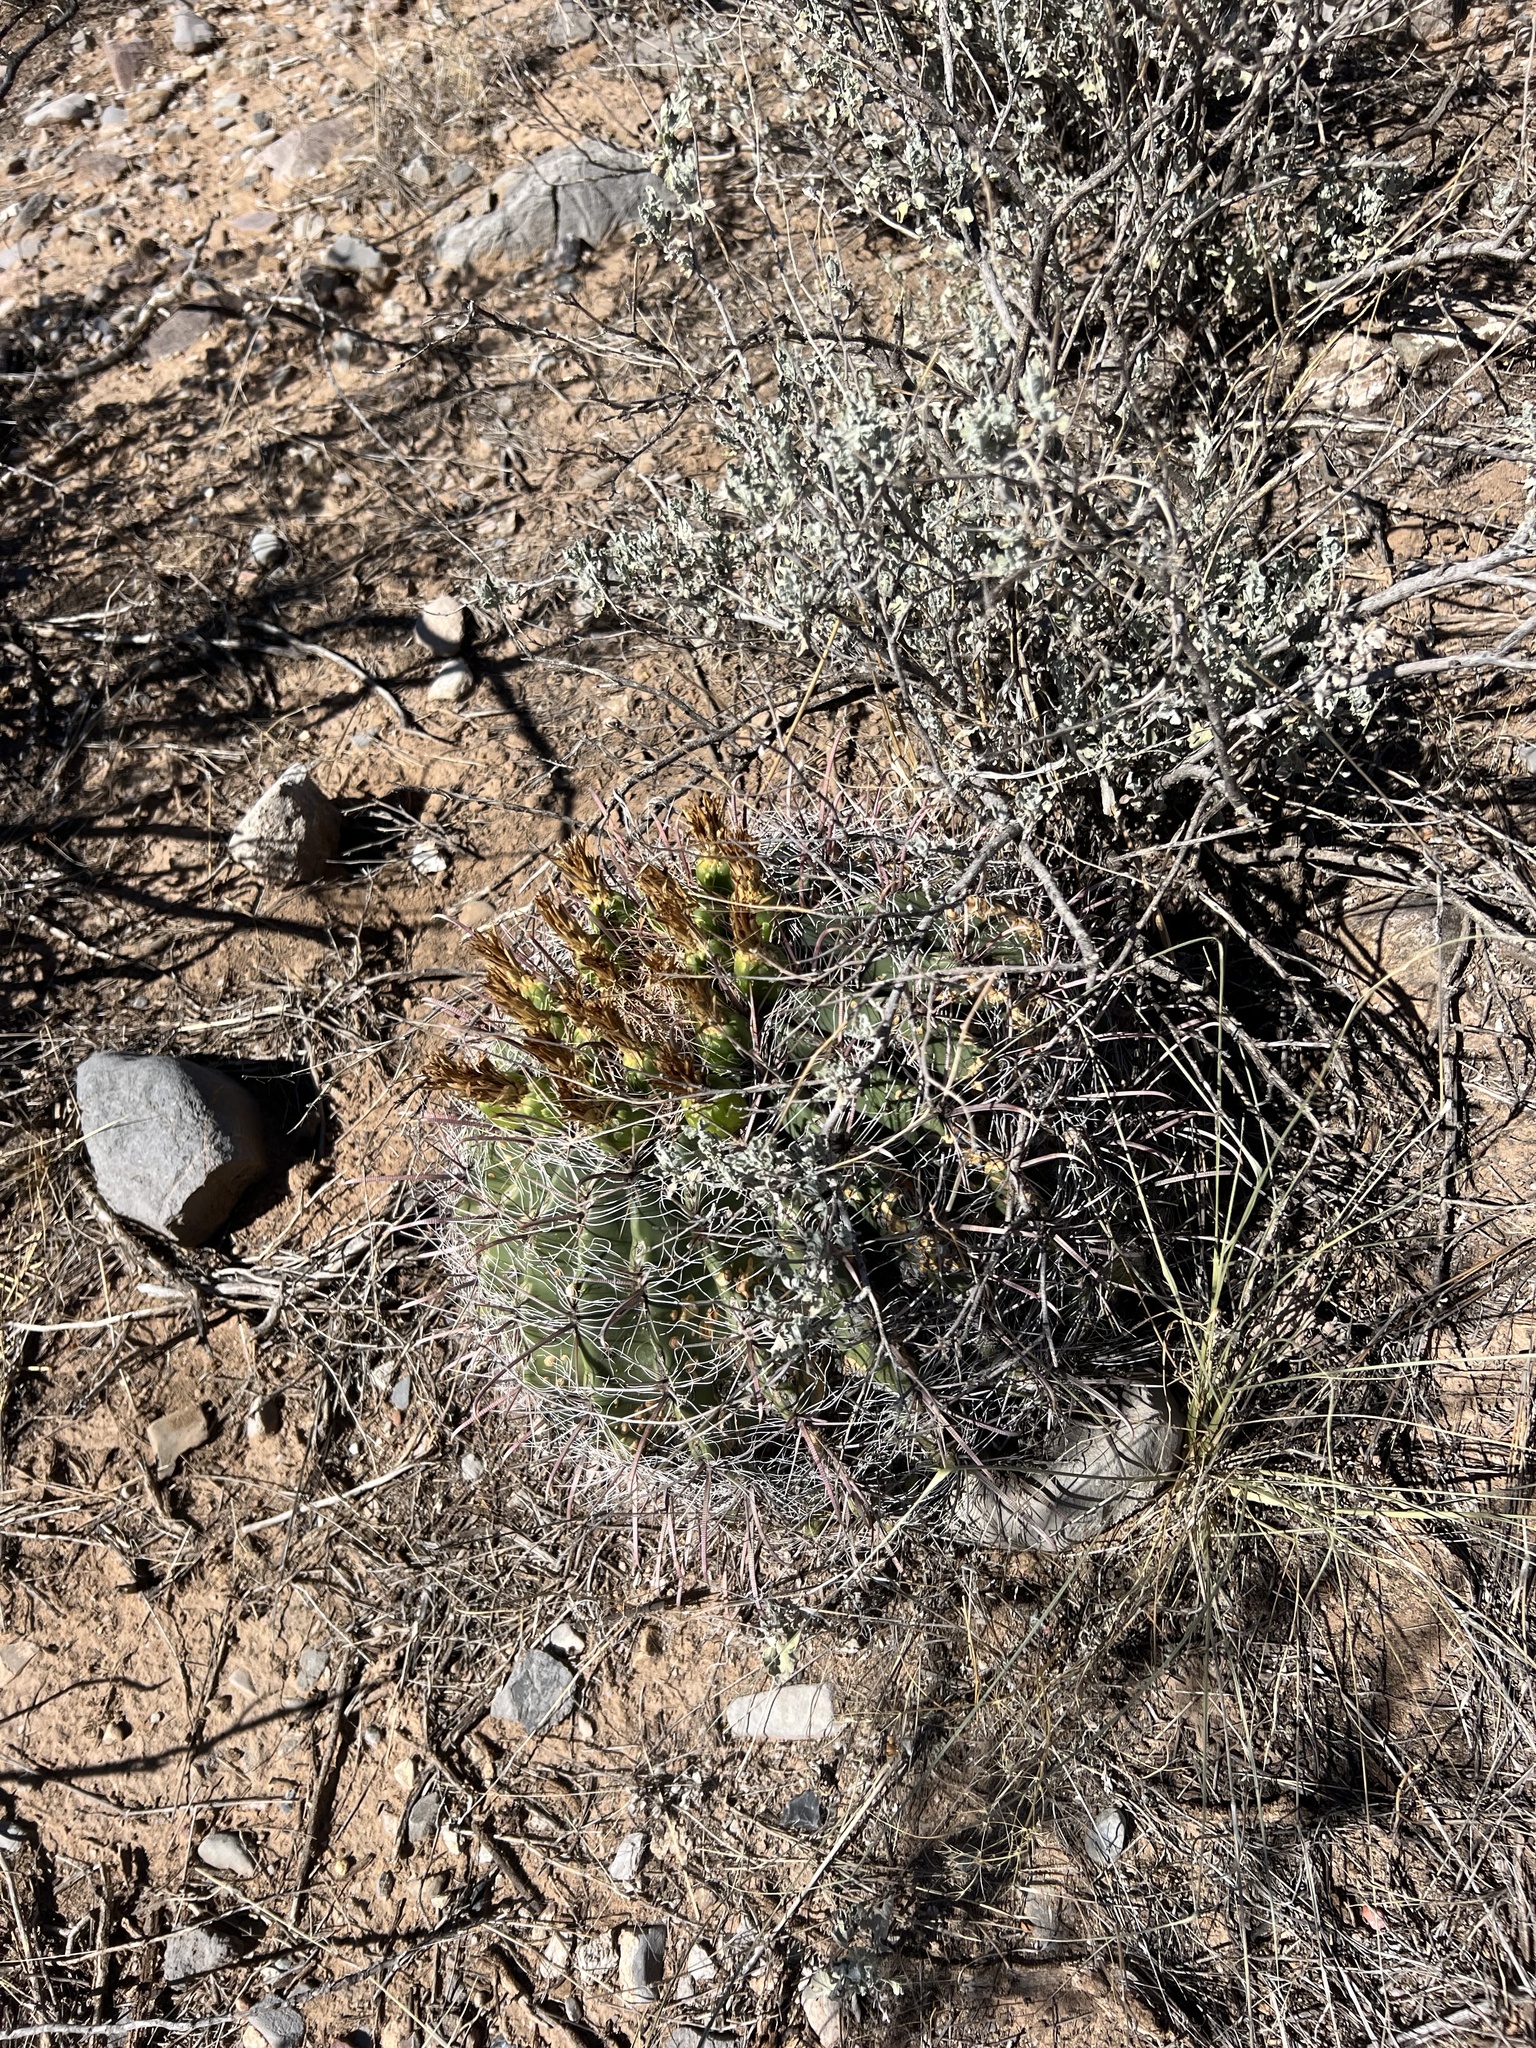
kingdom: Plantae
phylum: Tracheophyta
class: Magnoliopsida
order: Caryophyllales
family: Cactaceae
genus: Ferocactus
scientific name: Ferocactus wislizeni
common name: Candy barrel cactus
